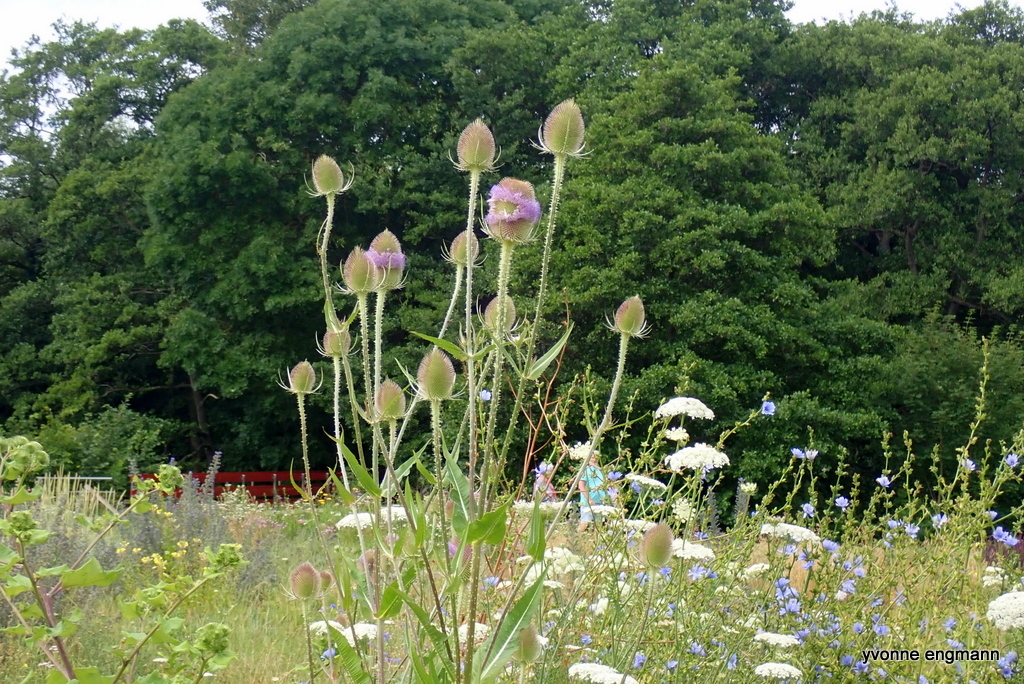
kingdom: Plantae
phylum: Tracheophyta
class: Magnoliopsida
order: Dipsacales
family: Caprifoliaceae
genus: Dipsacus
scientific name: Dipsacus fullonum
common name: Teasel
